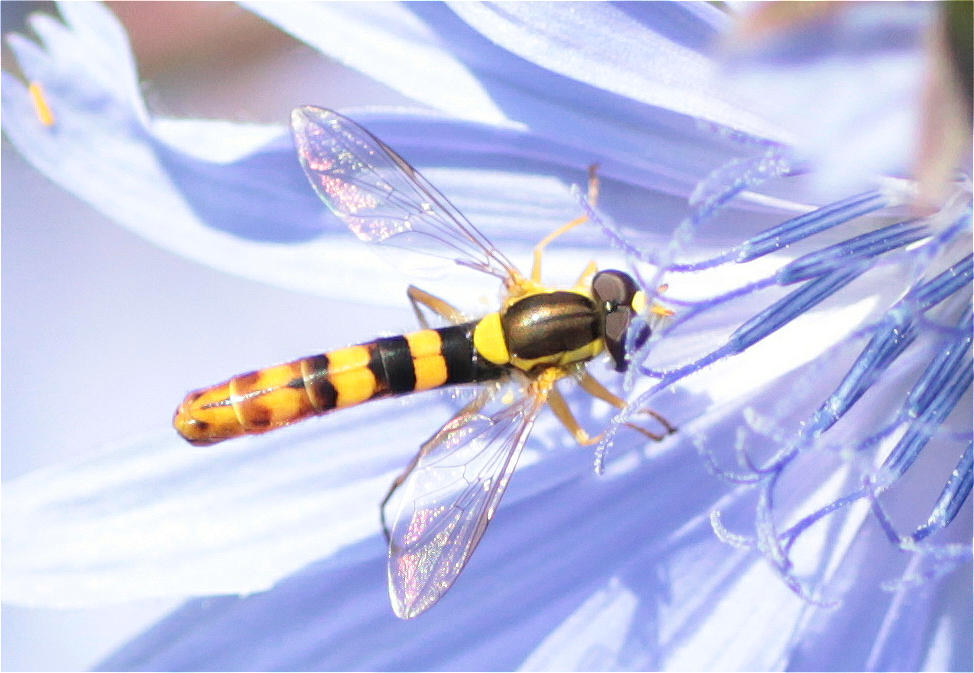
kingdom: Animalia
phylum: Arthropoda
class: Insecta
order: Diptera
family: Syrphidae
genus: Sphaerophoria
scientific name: Sphaerophoria scripta
